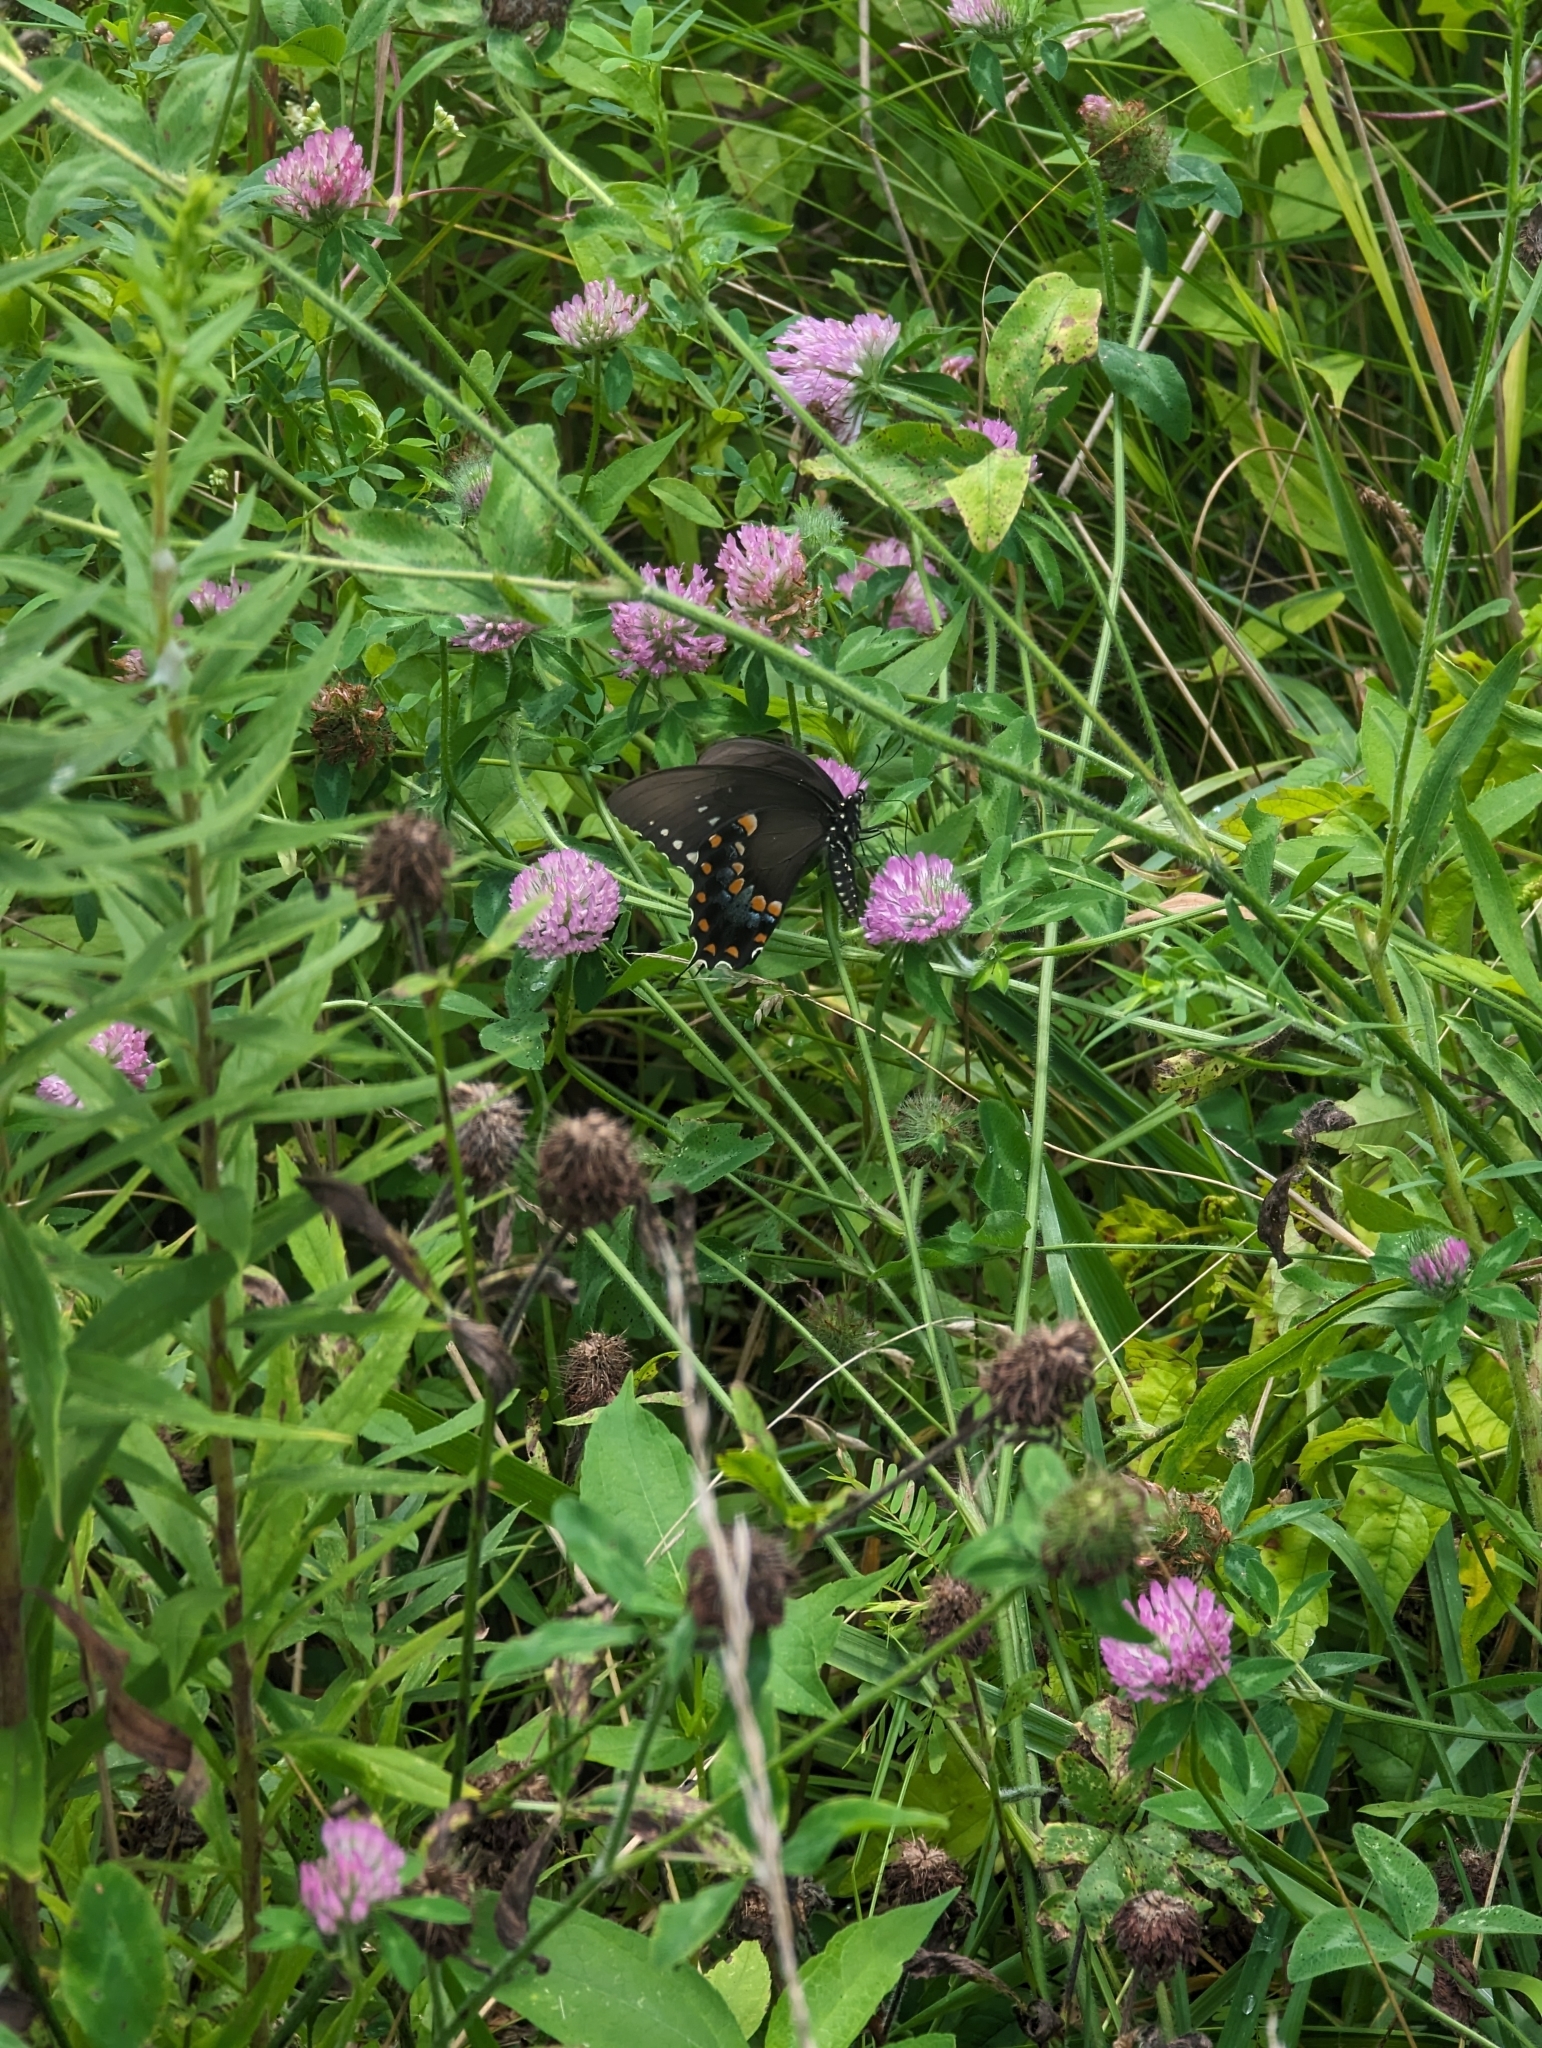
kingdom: Animalia
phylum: Arthropoda
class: Insecta
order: Lepidoptera
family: Papilionidae
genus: Papilio
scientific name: Papilio troilus
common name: Spicebush swallowtail
